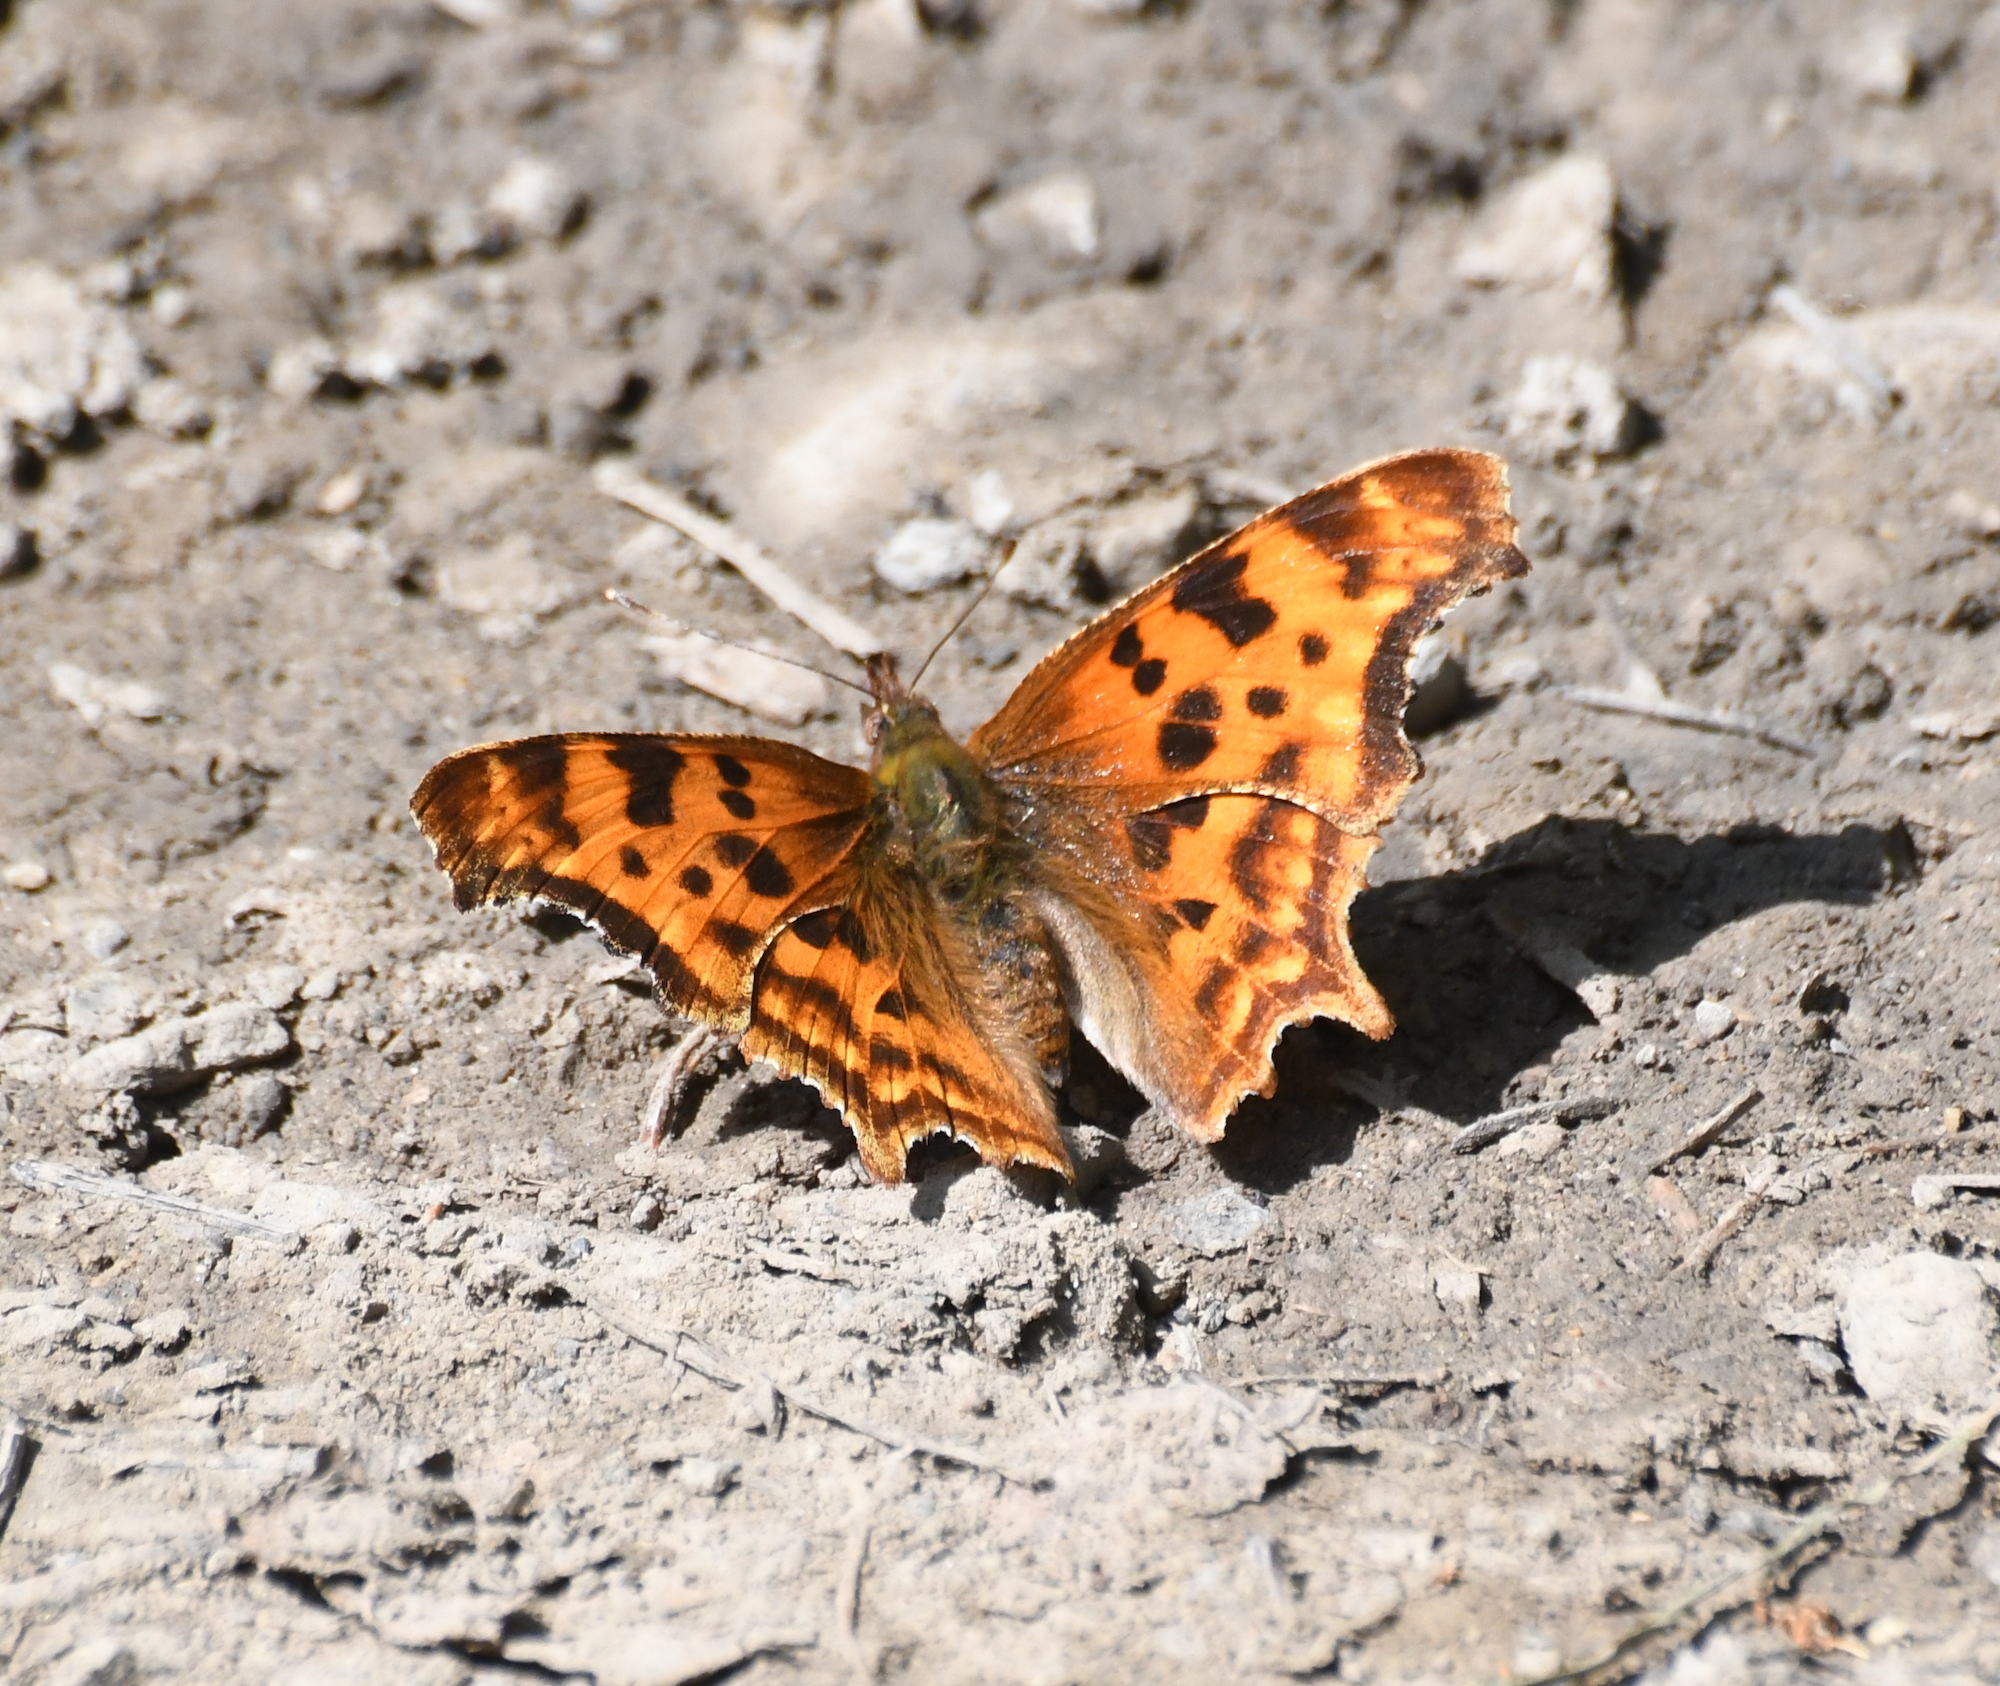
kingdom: Animalia
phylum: Arthropoda
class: Insecta
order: Lepidoptera
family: Nymphalidae
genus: Polygonia
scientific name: Polygonia satyrus
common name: Satyr angle wing
